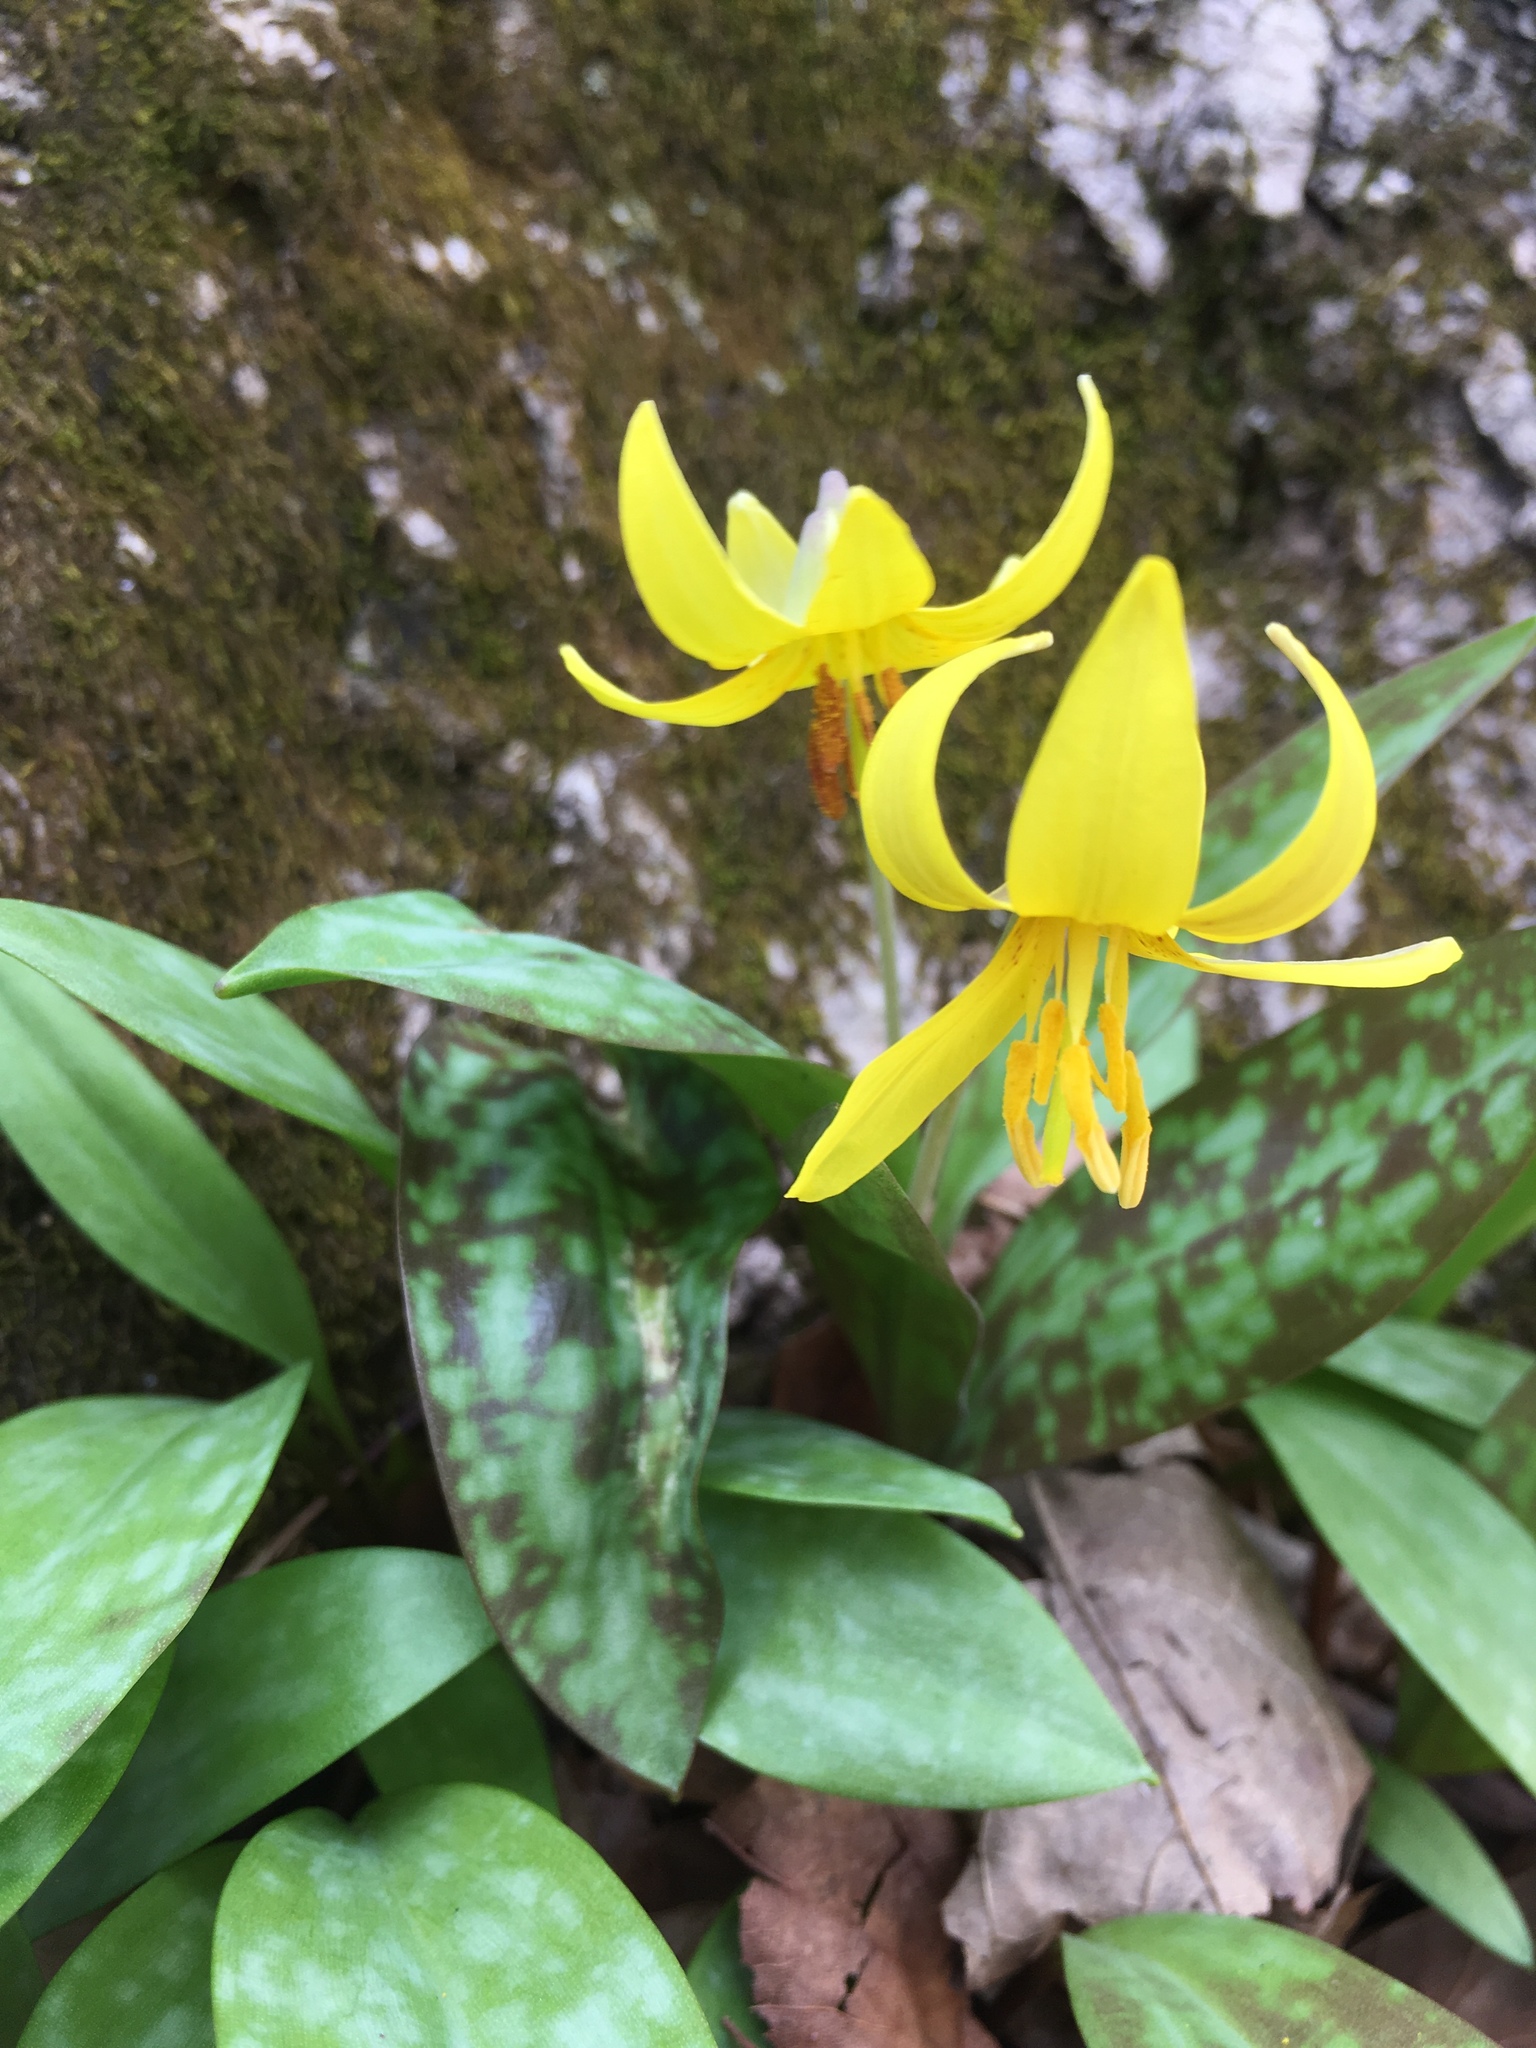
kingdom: Plantae
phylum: Tracheophyta
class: Liliopsida
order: Liliales
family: Liliaceae
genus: Erythronium
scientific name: Erythronium americanum
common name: Yellow adder's-tongue
